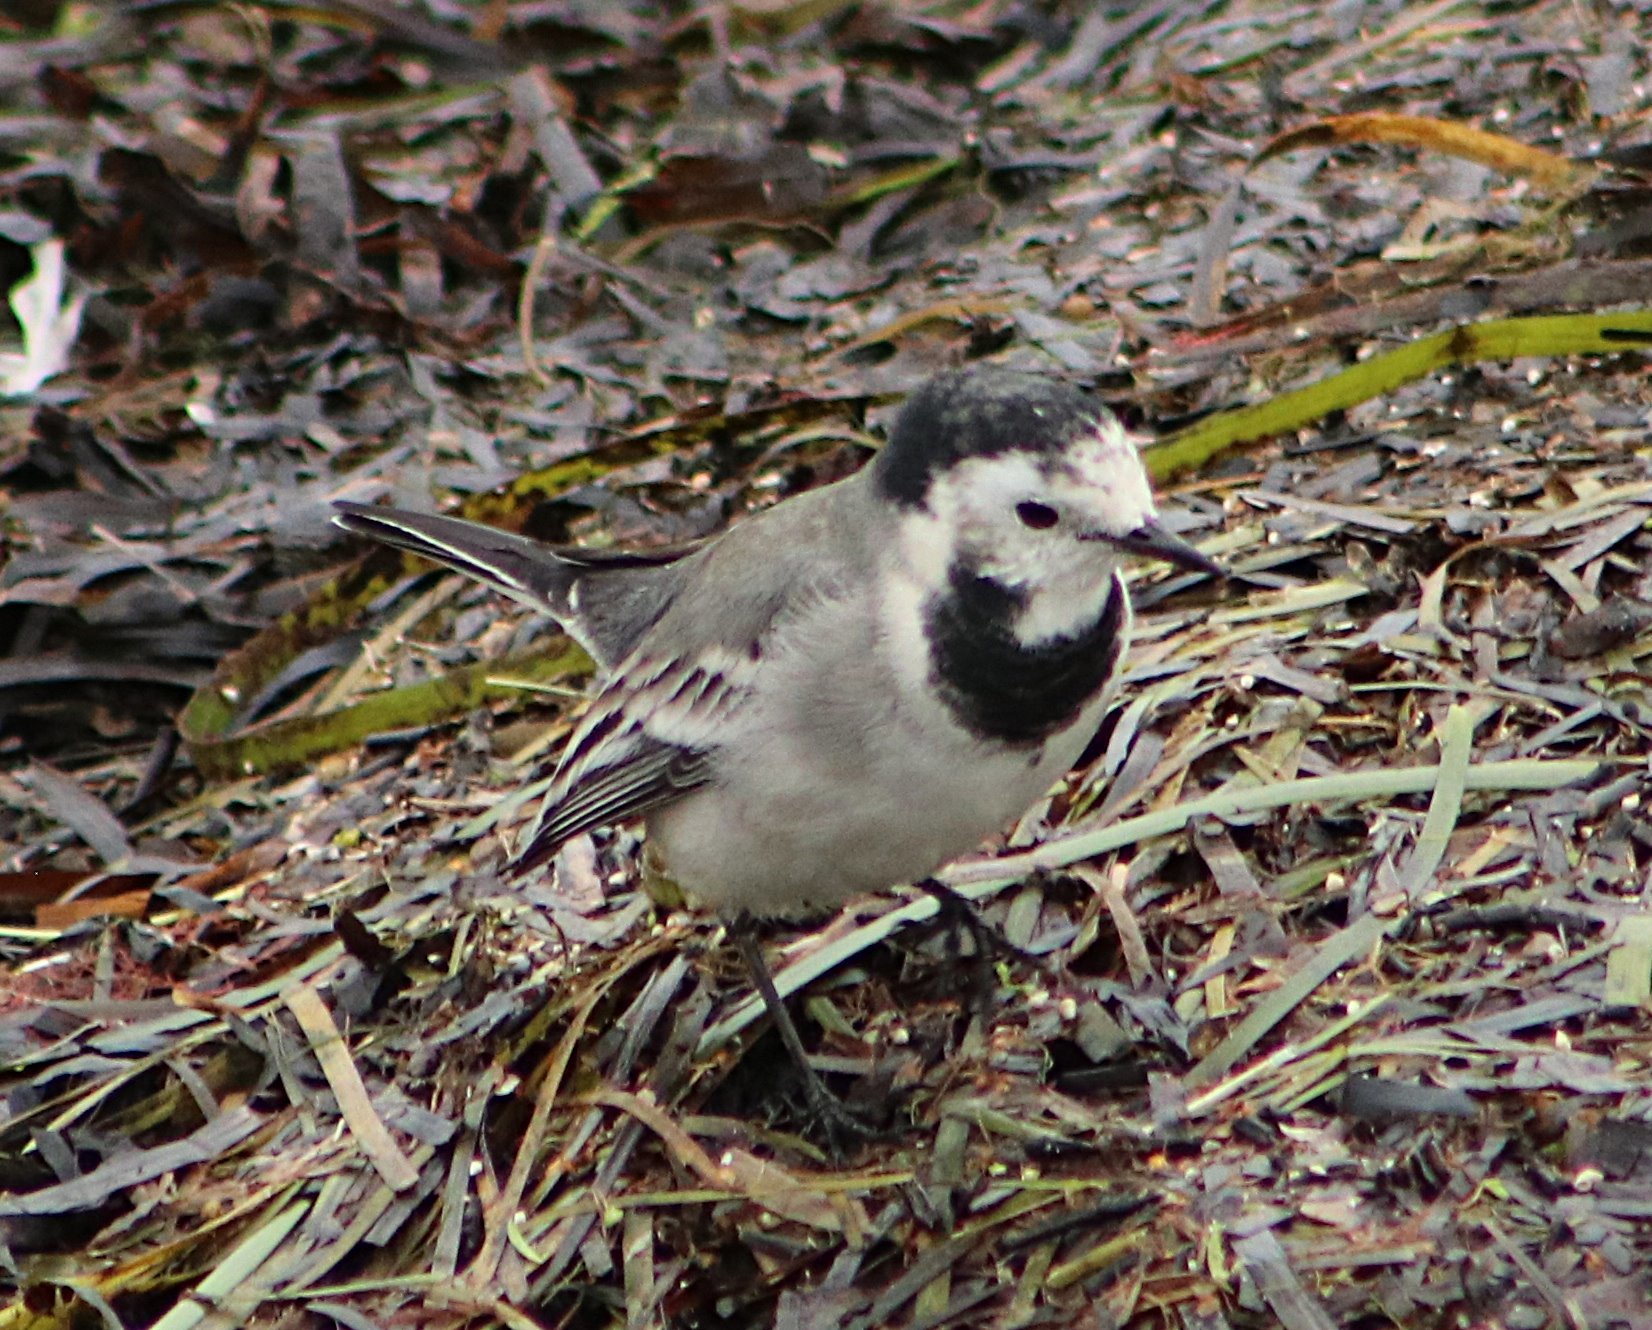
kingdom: Animalia
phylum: Chordata
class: Aves
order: Passeriformes
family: Motacillidae
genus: Motacilla
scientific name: Motacilla alba
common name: White wagtail
